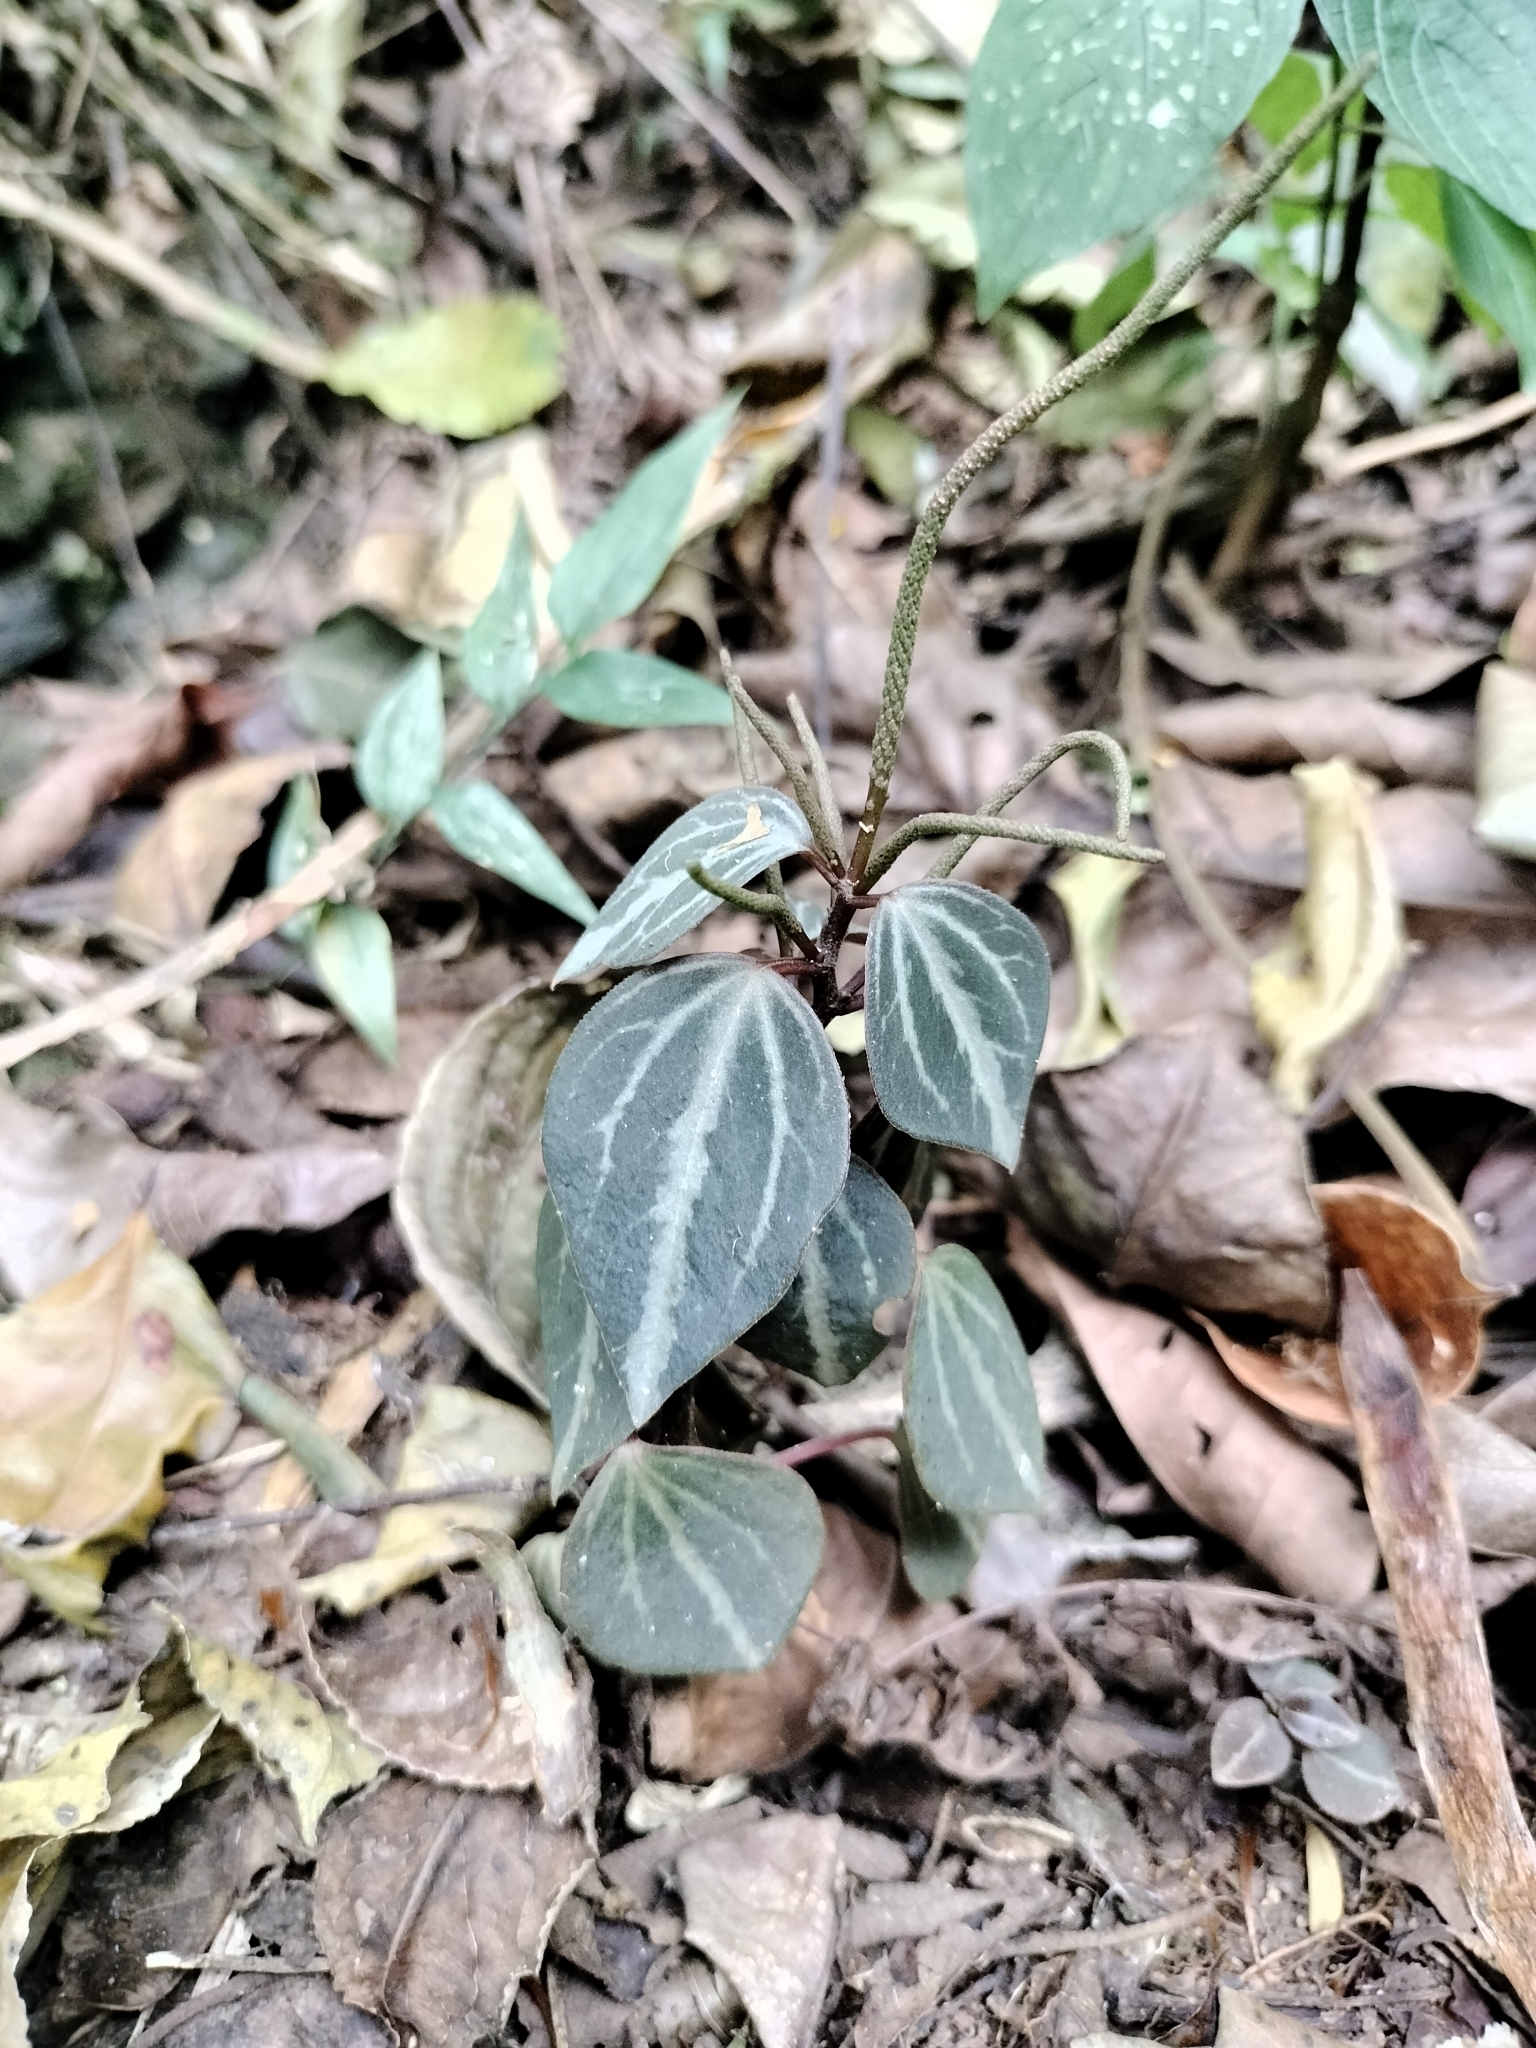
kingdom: Plantae
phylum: Tracheophyta
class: Magnoliopsida
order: Piperales
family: Piperaceae
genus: Peperomia
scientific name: Peperomia trinervis
